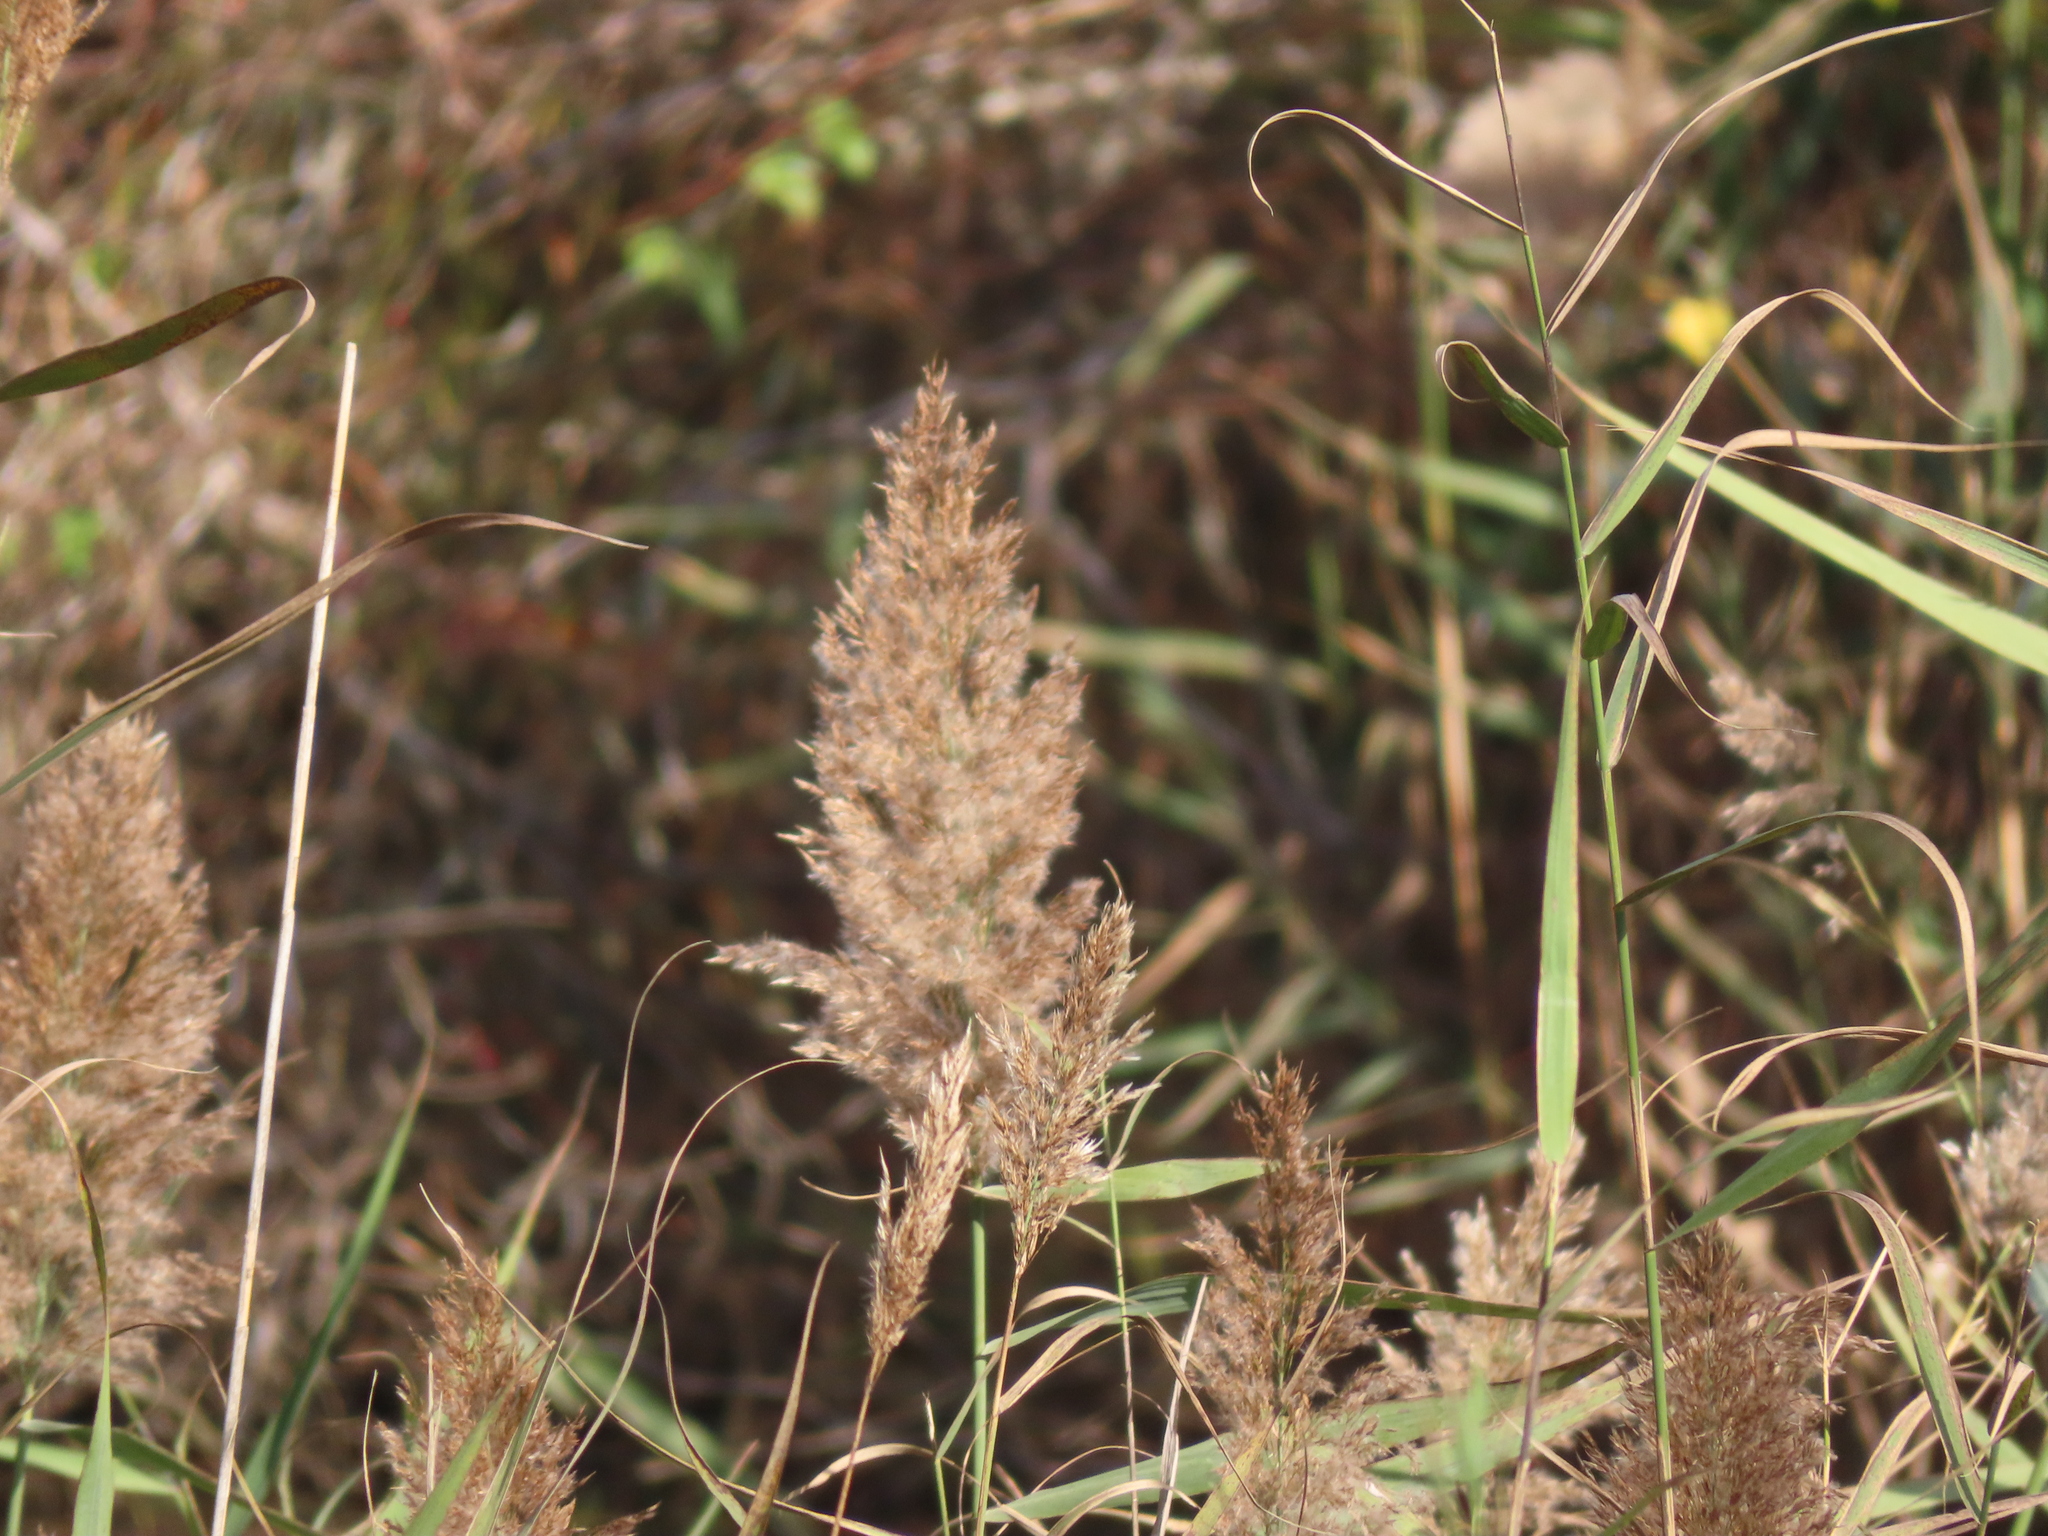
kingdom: Plantae
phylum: Tracheophyta
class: Liliopsida
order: Poales
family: Poaceae
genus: Phragmites
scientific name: Phragmites australis
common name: Common reed
